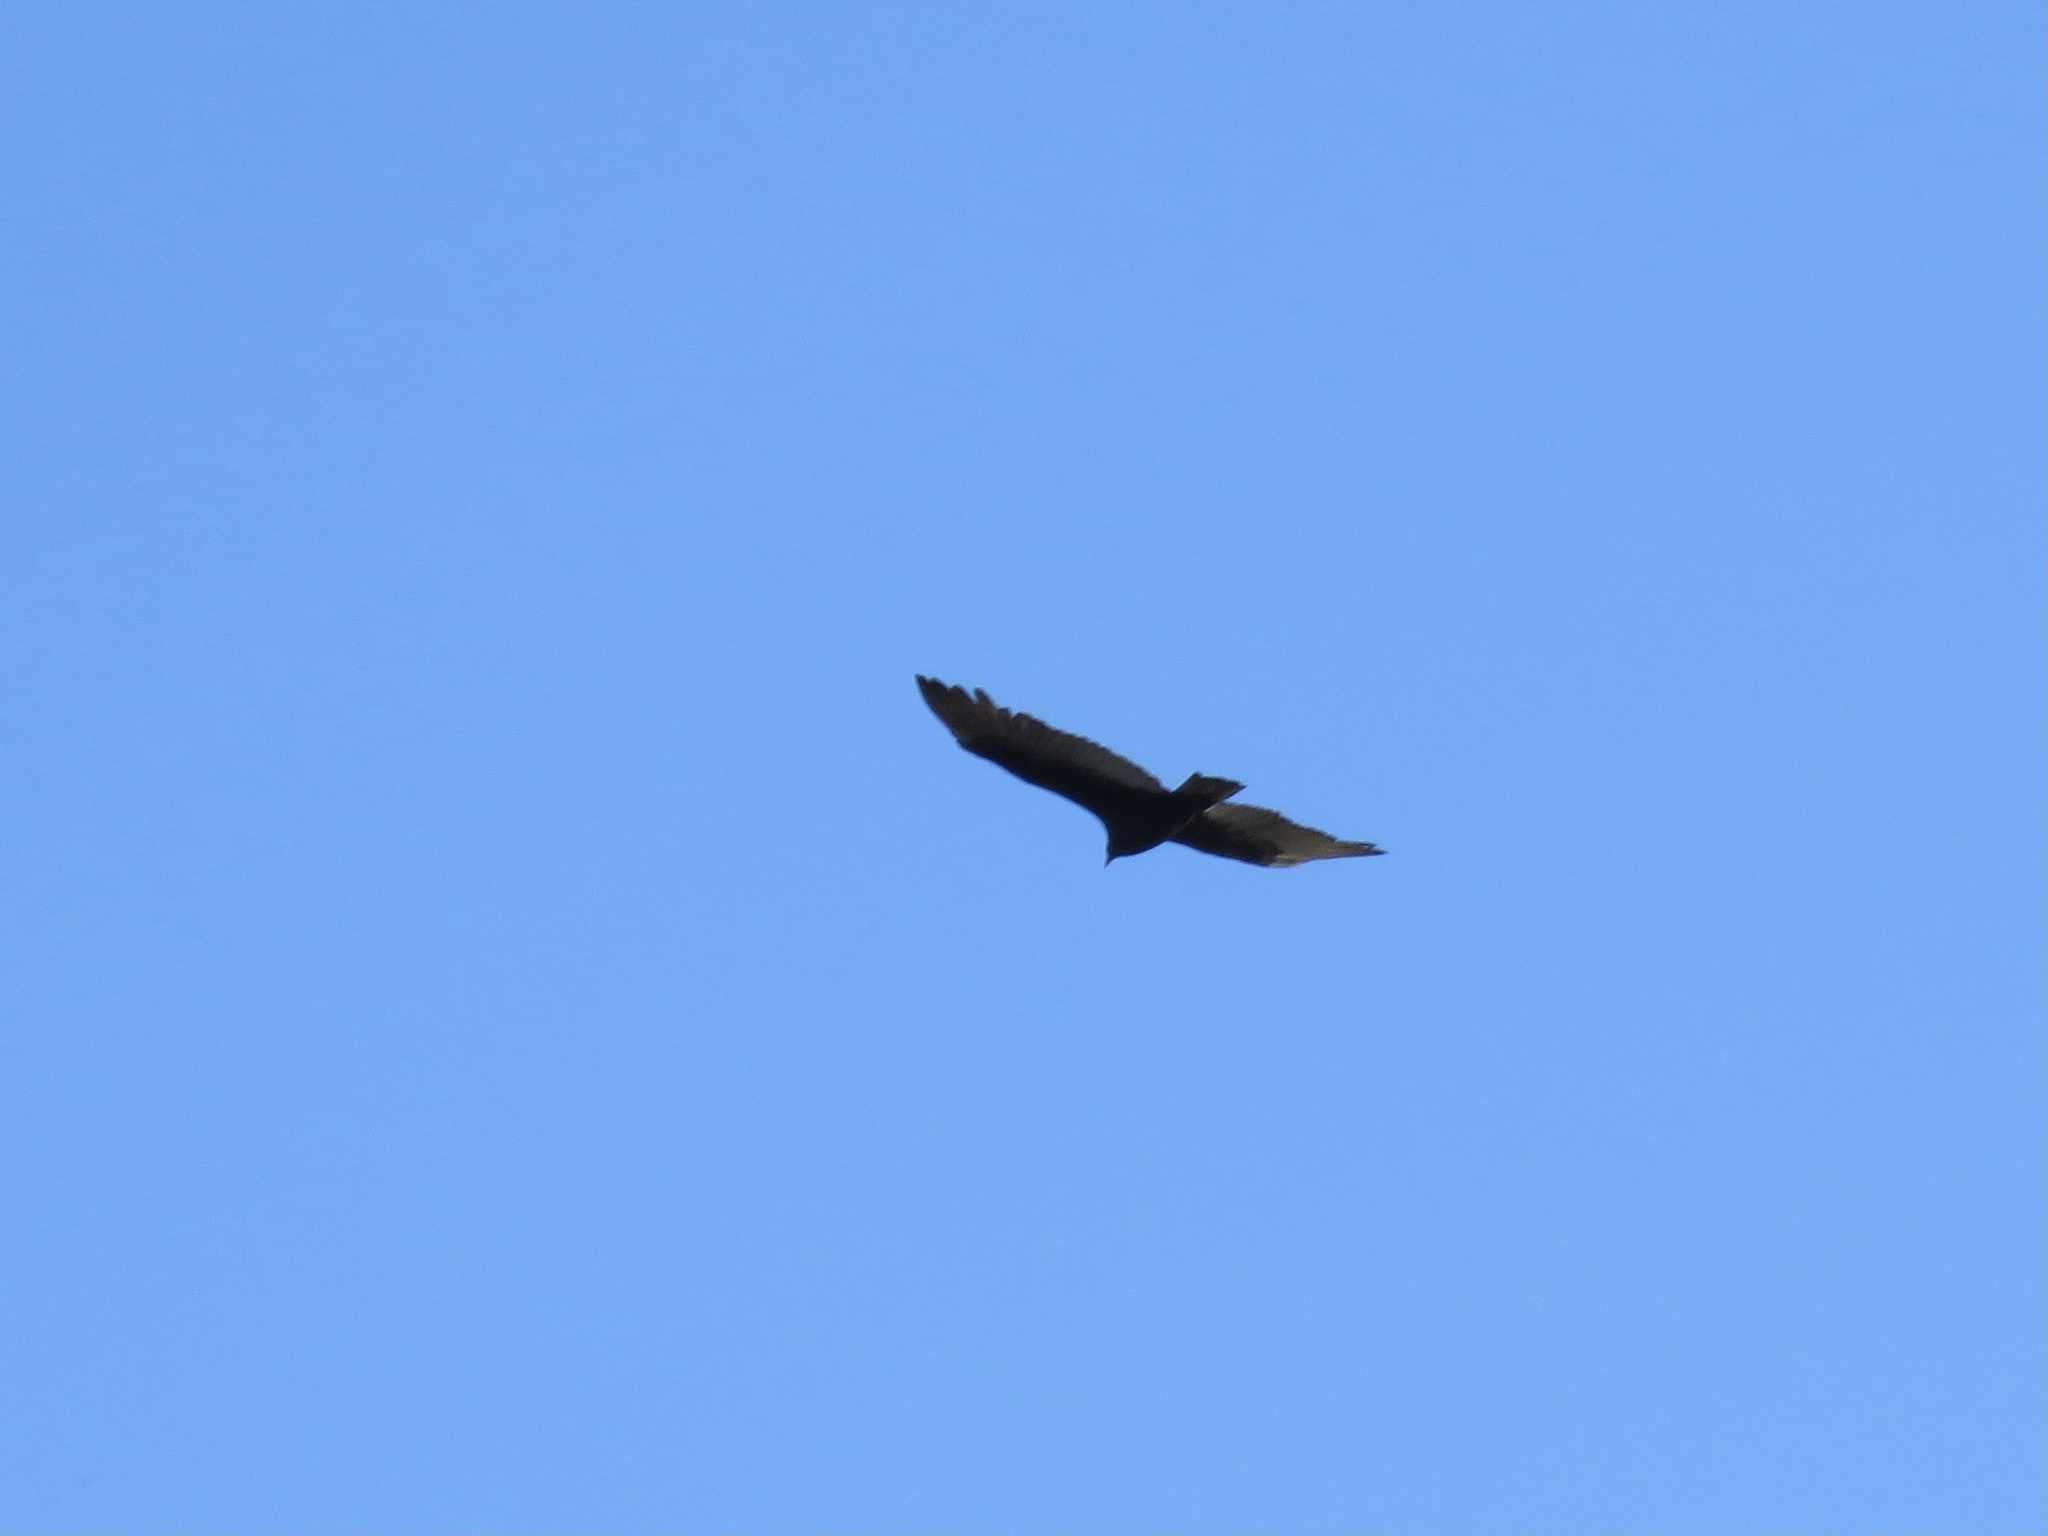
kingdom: Animalia
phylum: Chordata
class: Aves
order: Accipitriformes
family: Cathartidae
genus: Cathartes
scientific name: Cathartes aura
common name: Turkey vulture
